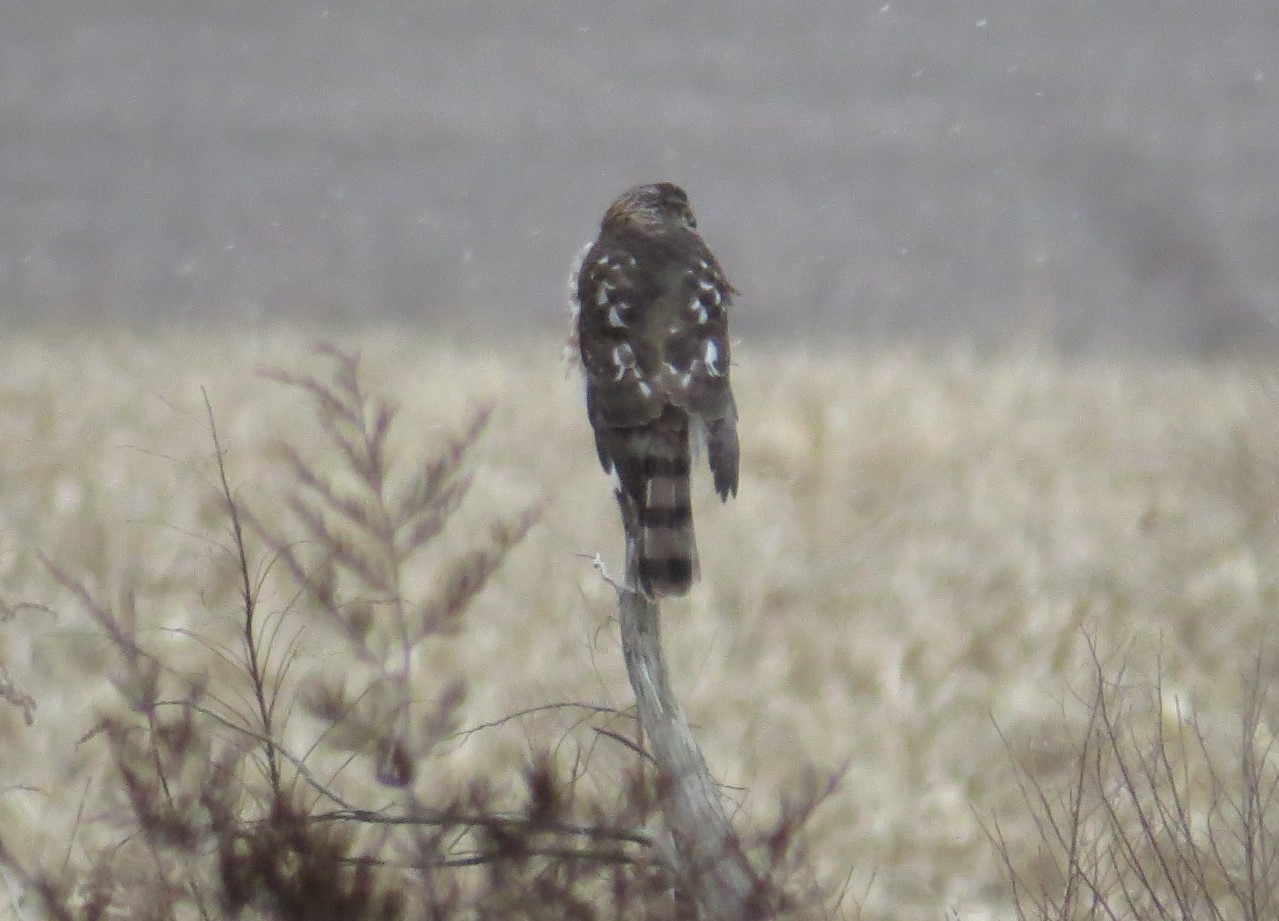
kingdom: Animalia
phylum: Chordata
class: Aves
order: Accipitriformes
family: Accipitridae
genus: Accipiter
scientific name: Accipiter striatus
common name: Sharp-shinned hawk
